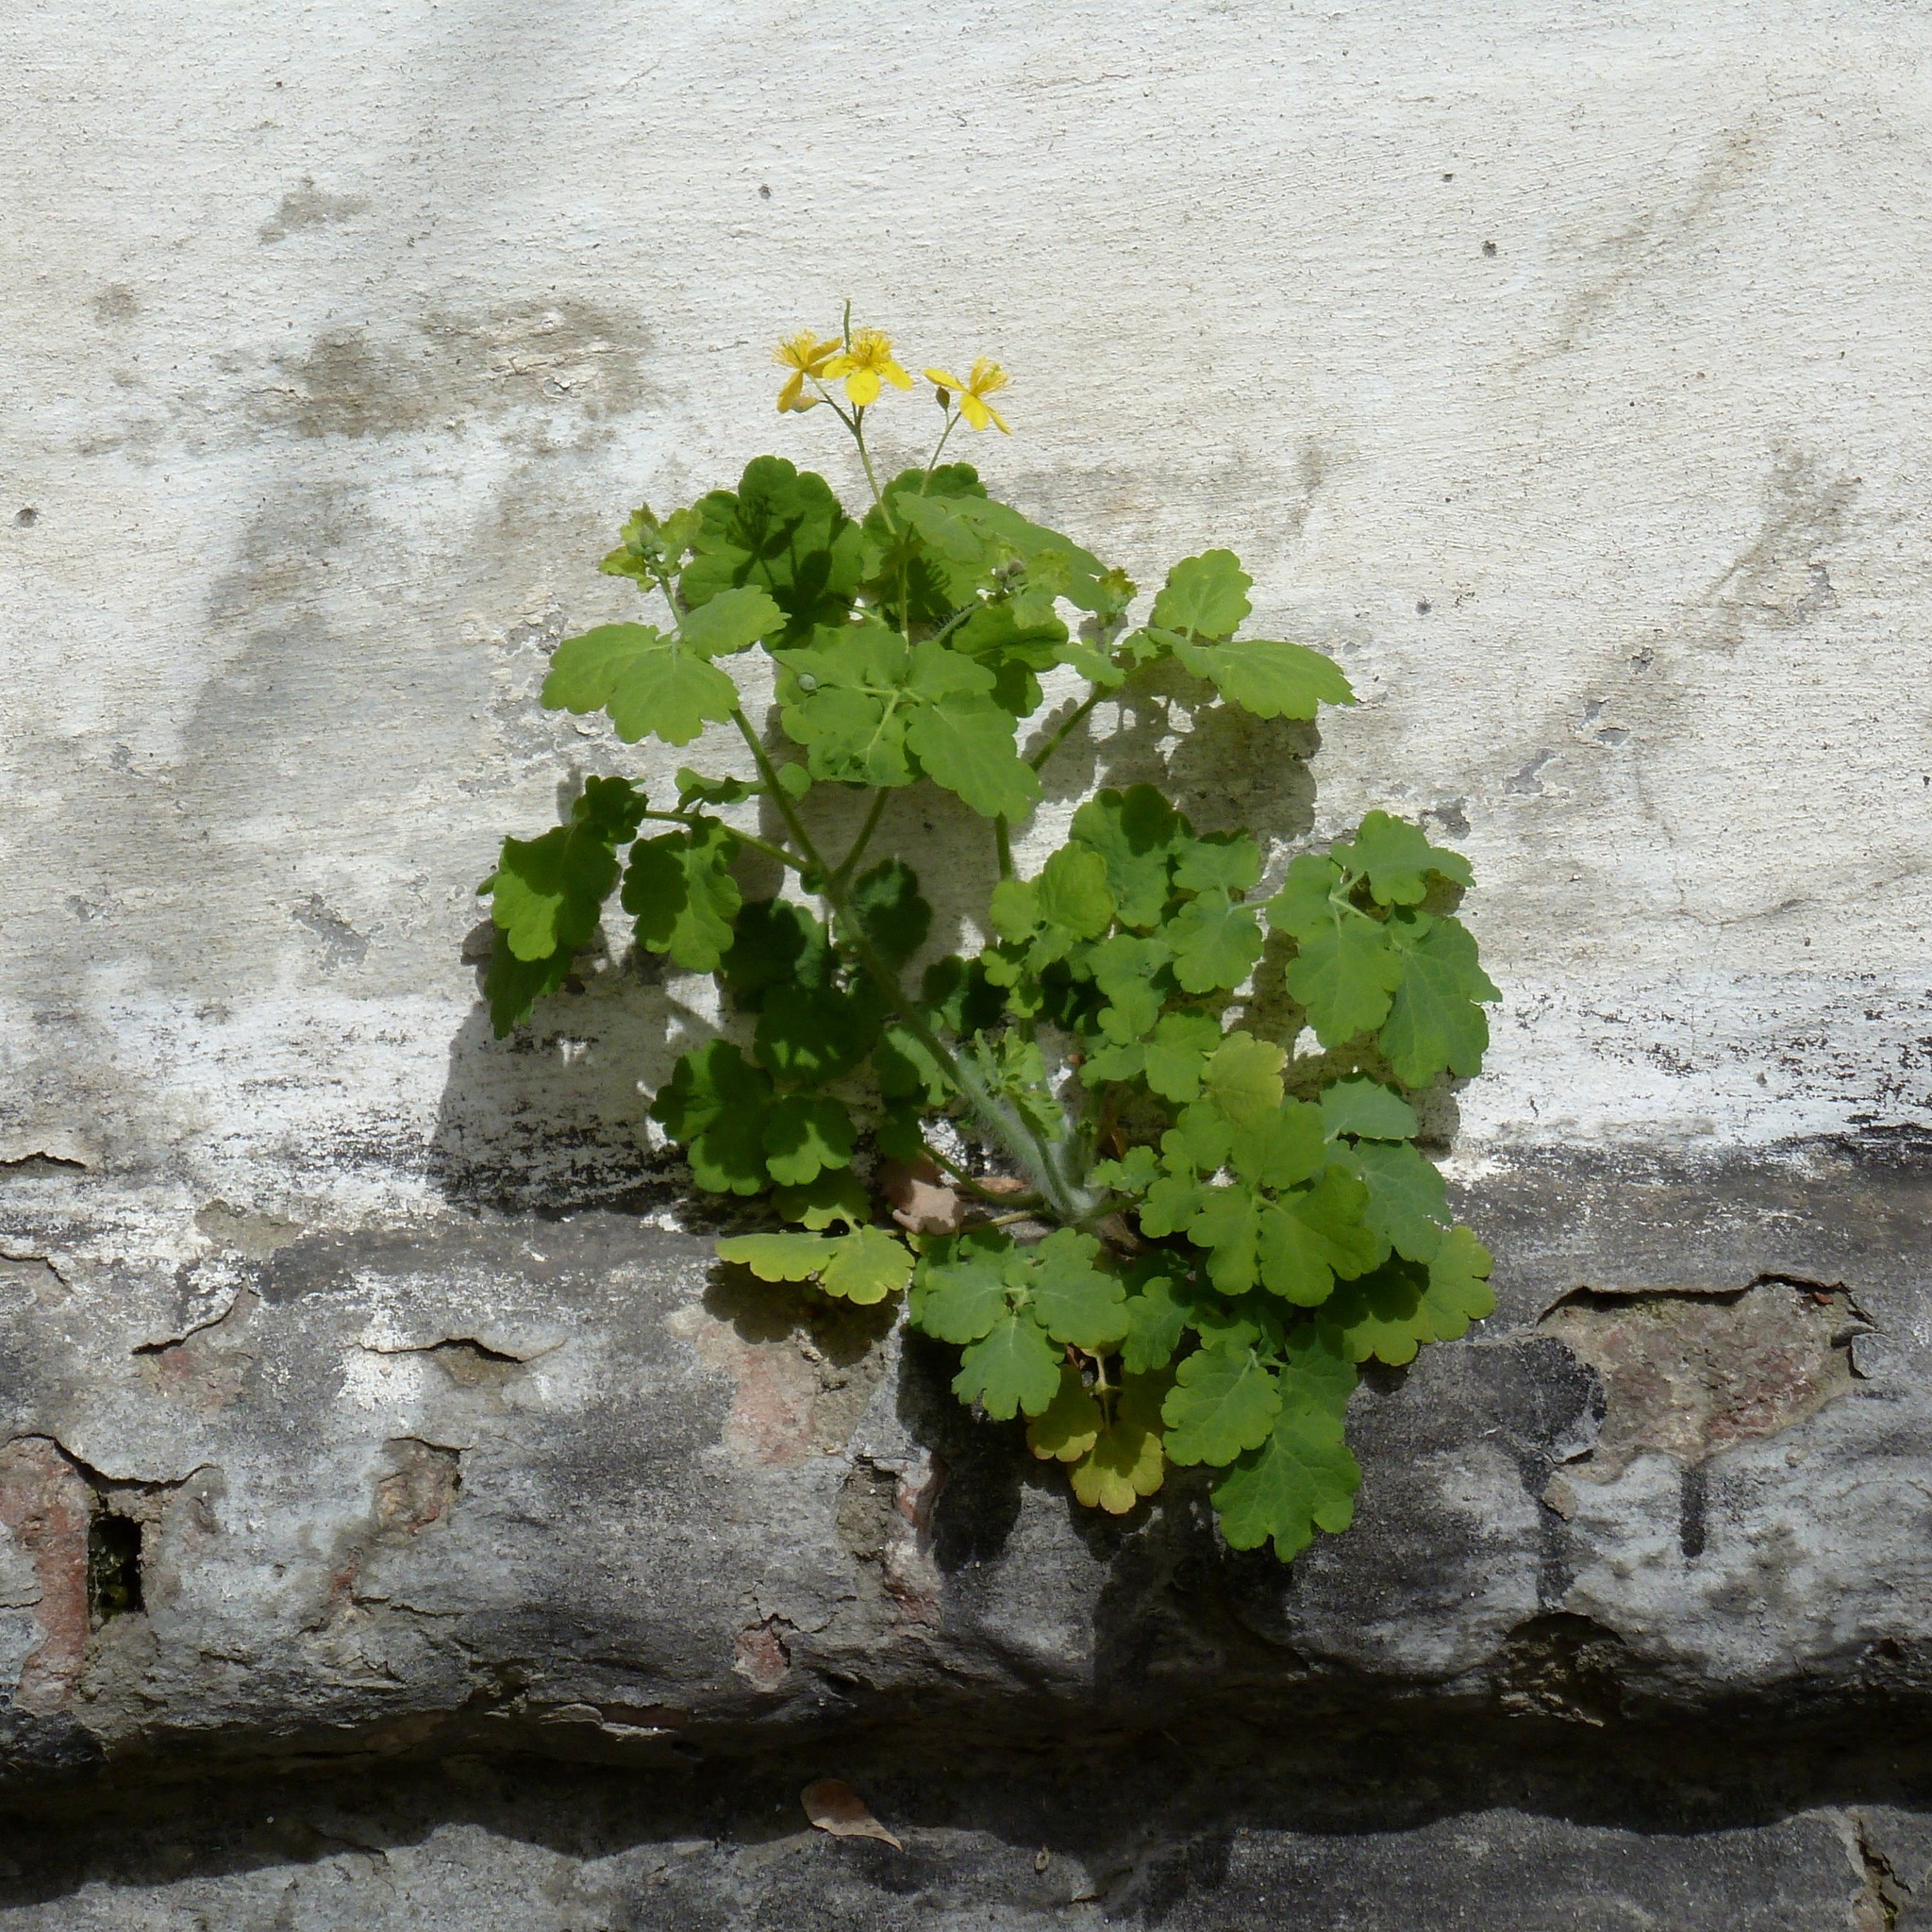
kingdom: Plantae
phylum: Tracheophyta
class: Magnoliopsida
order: Ranunculales
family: Papaveraceae
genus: Chelidonium
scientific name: Chelidonium majus
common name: Greater celandine
